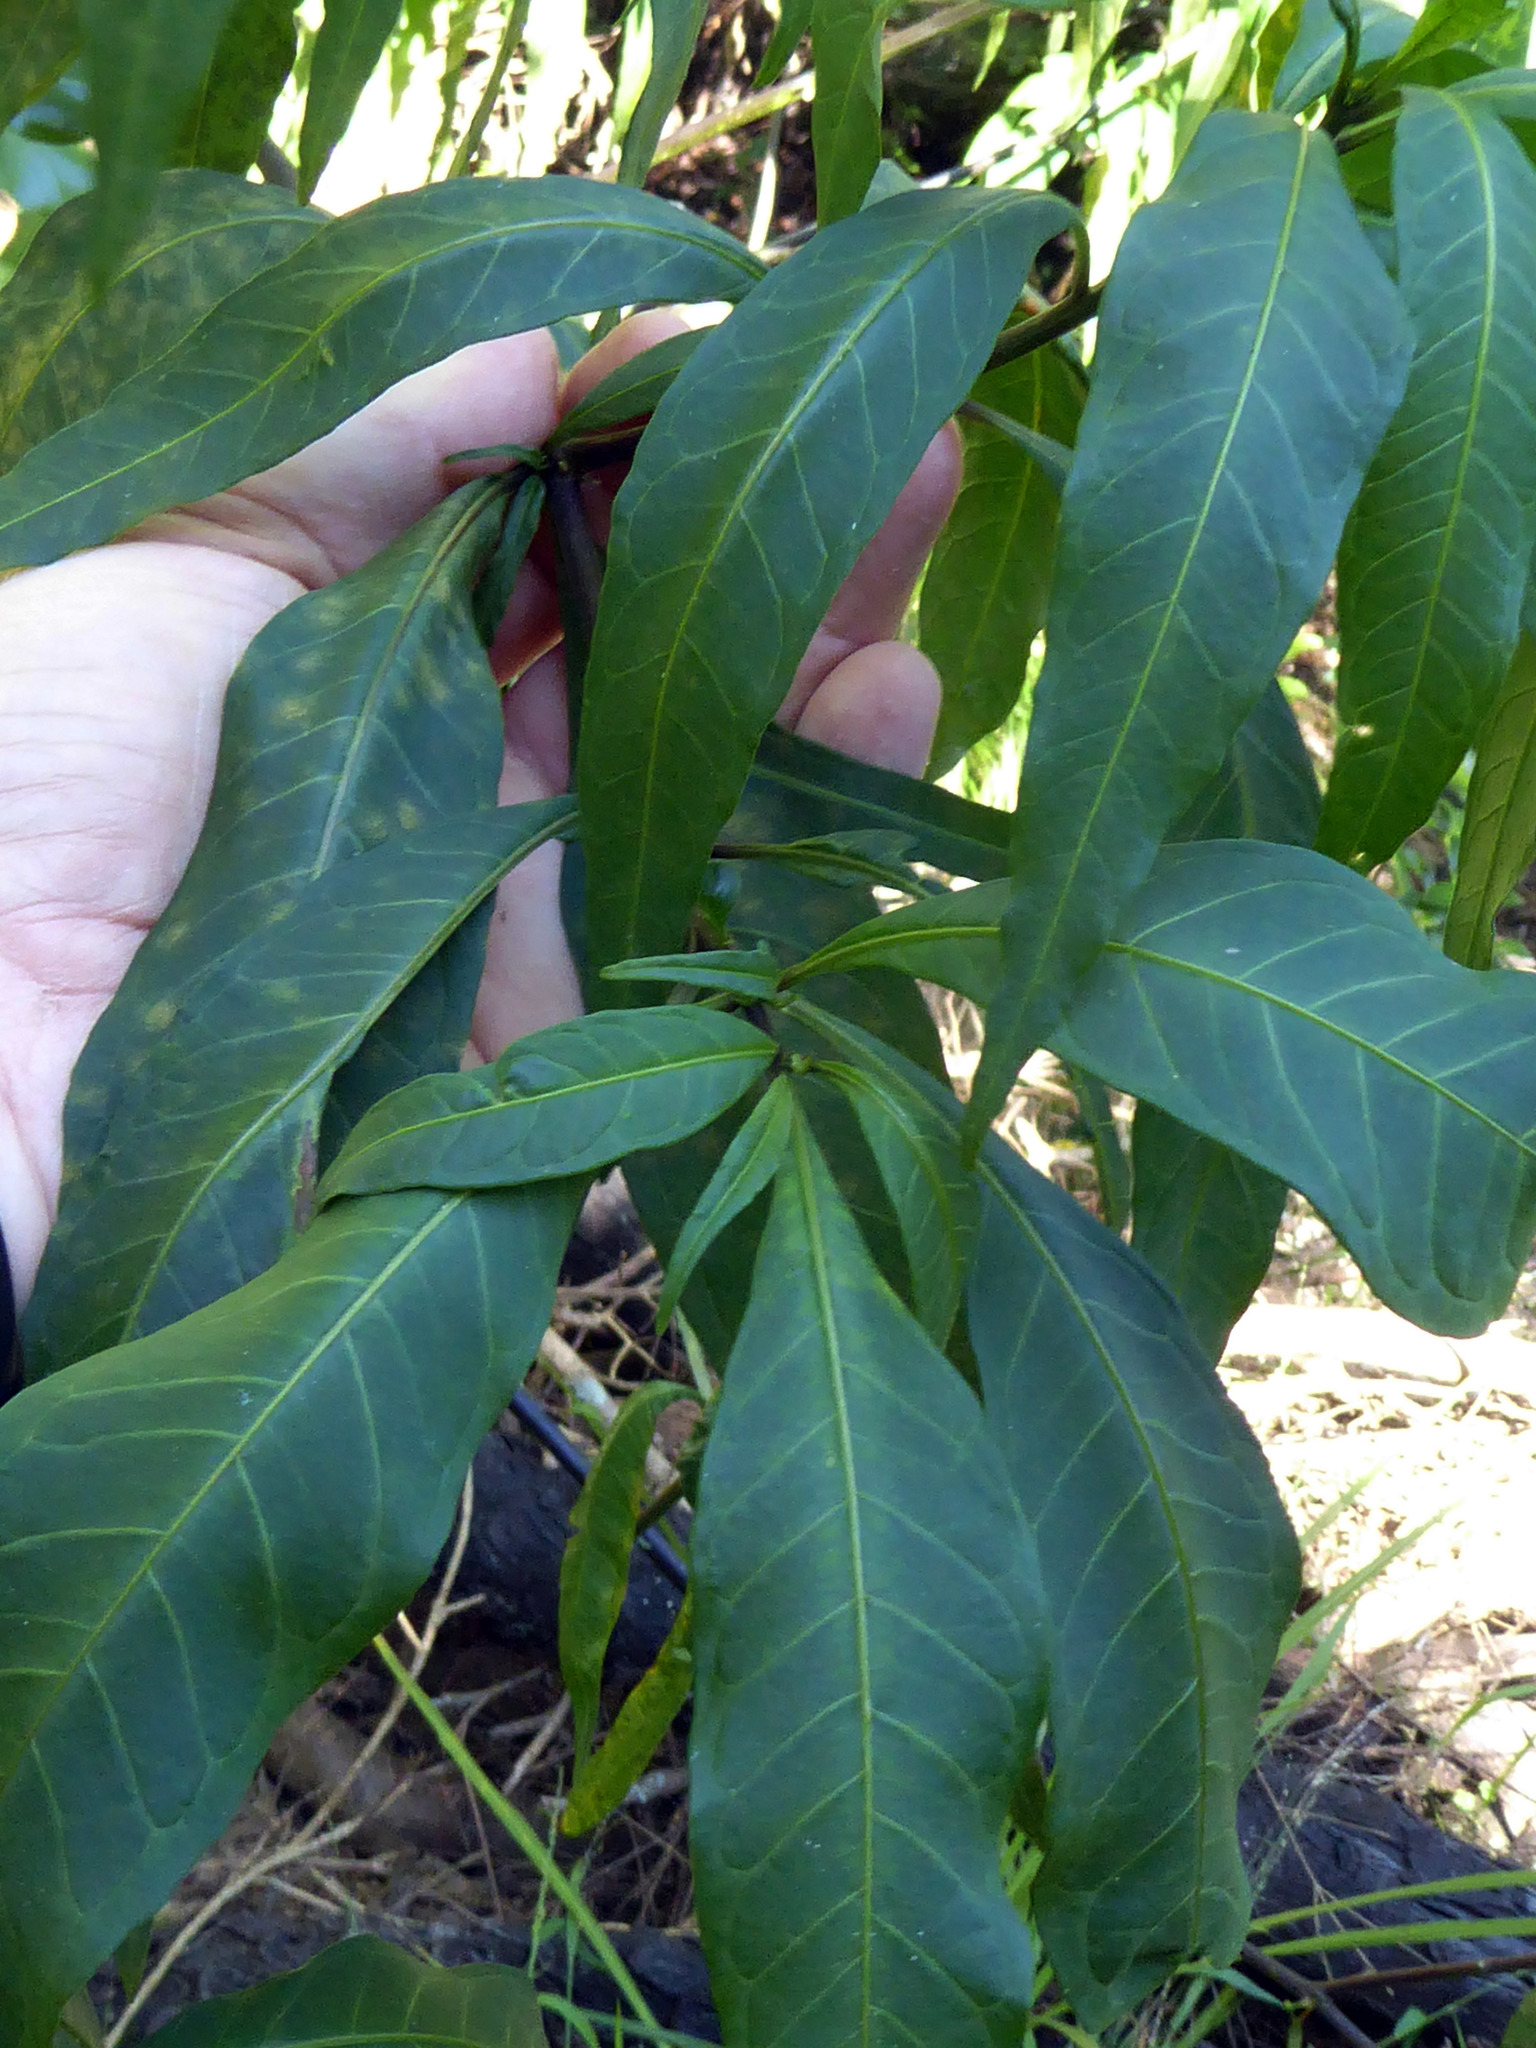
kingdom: Plantae
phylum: Tracheophyta
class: Magnoliopsida
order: Solanales
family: Solanaceae
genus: Solanum
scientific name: Solanum laciniatum
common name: Kangaroo-apple
